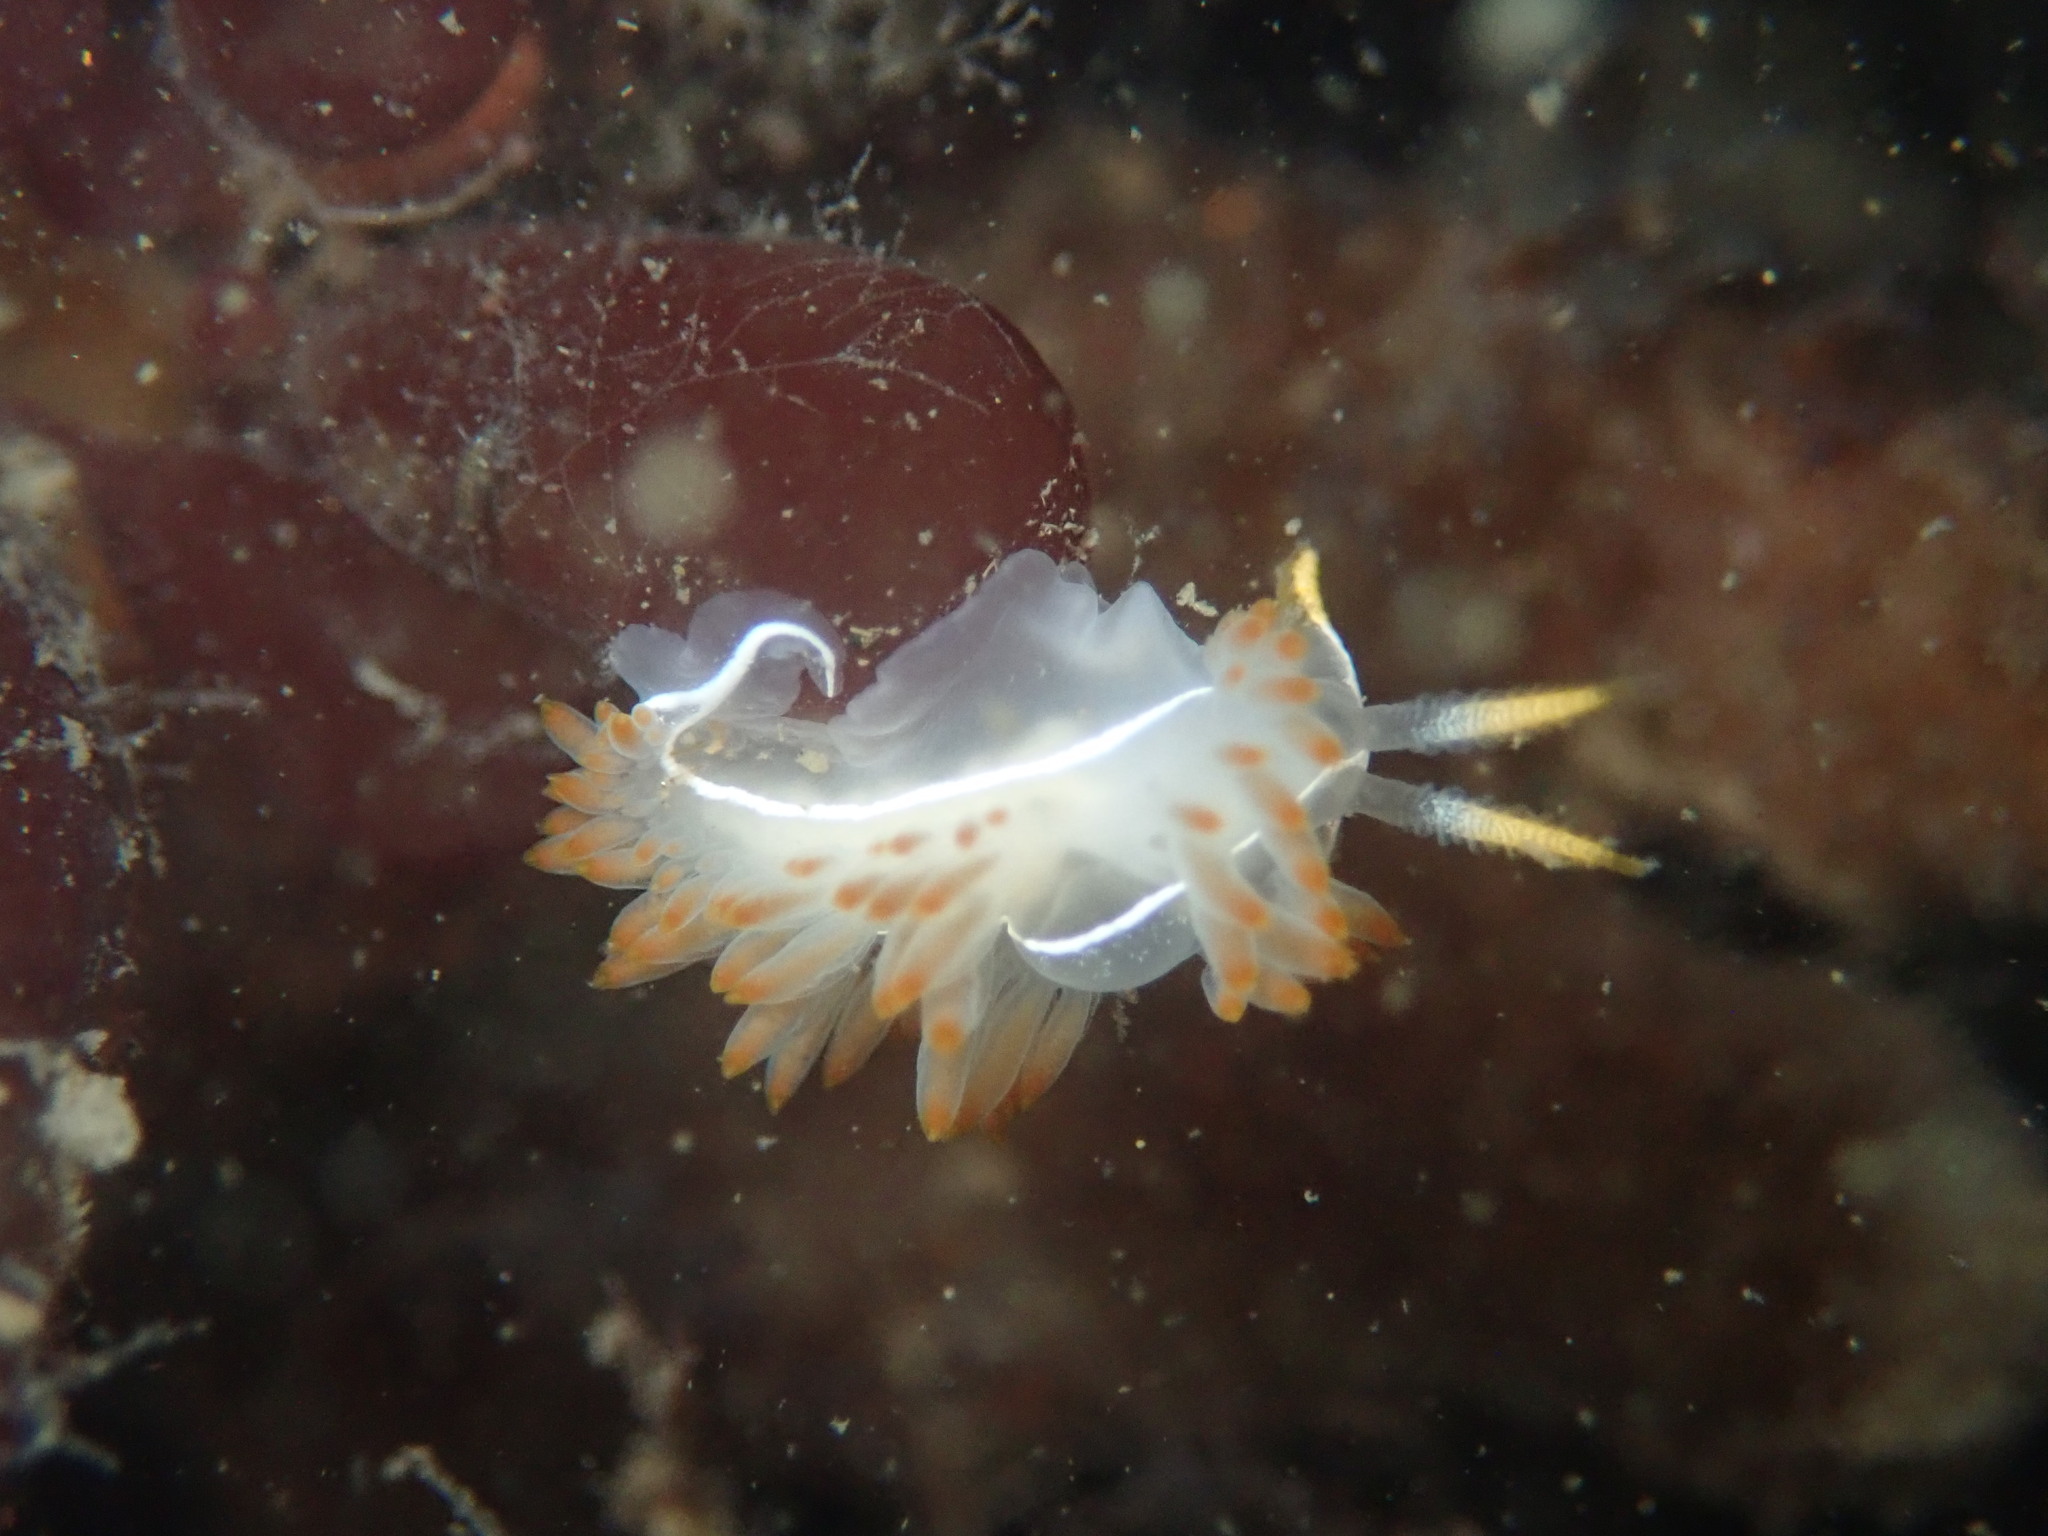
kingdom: Animalia
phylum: Mollusca
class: Gastropoda
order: Nudibranchia
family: Coryphellidae
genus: Coryphella
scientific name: Coryphella trilineata
